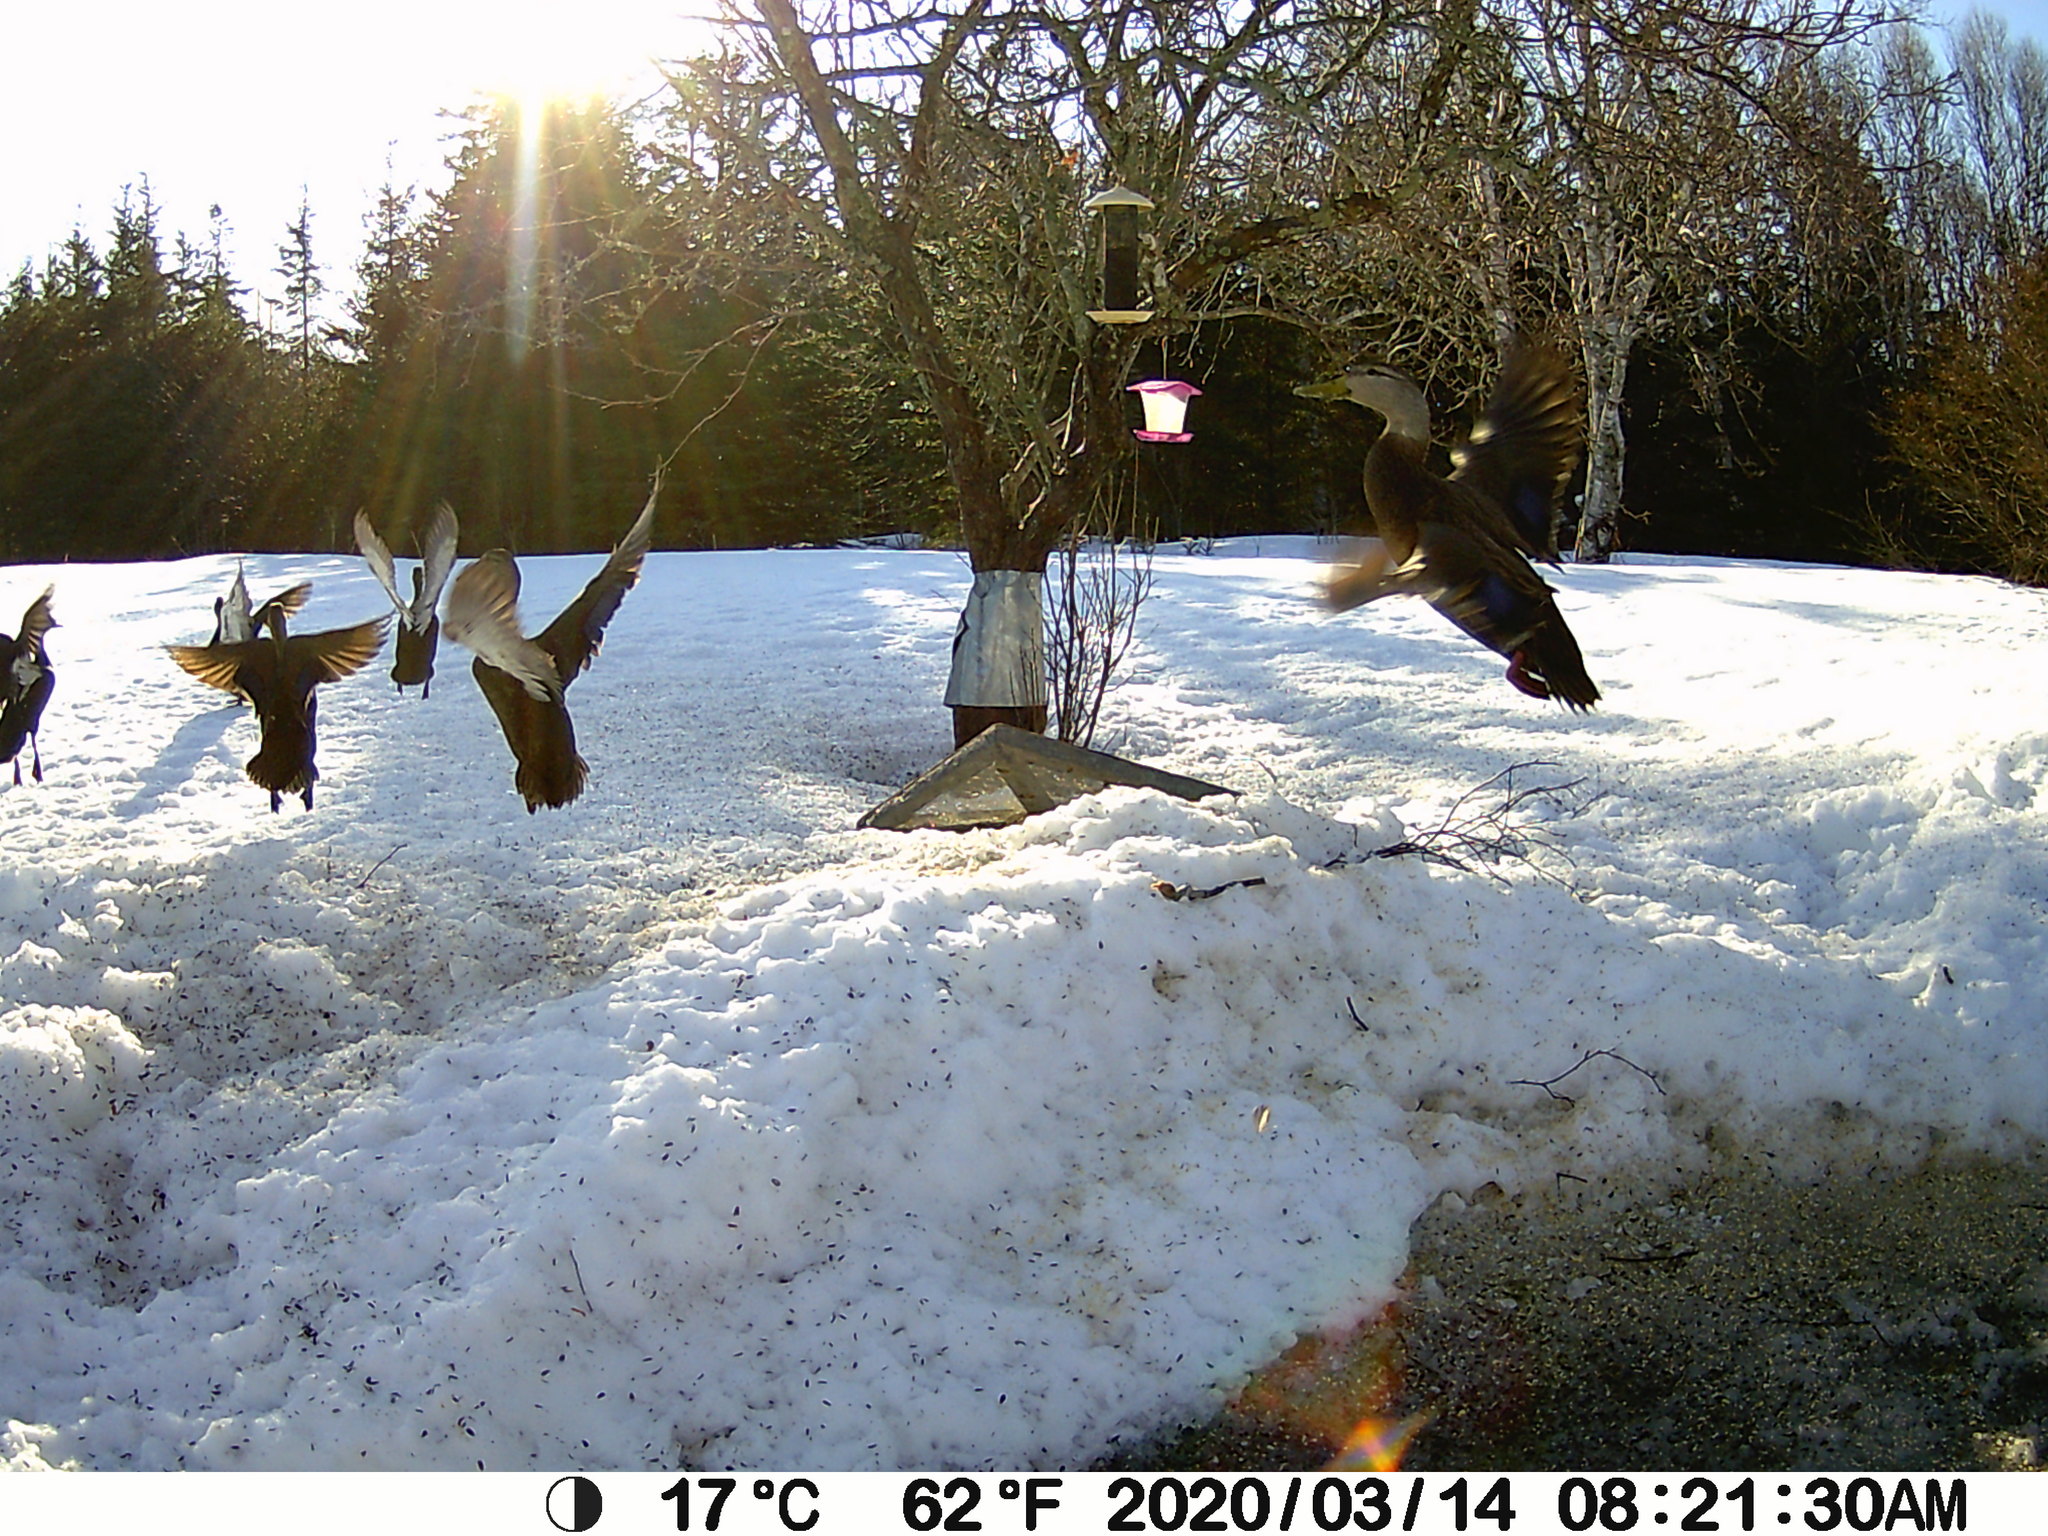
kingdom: Animalia
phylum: Chordata
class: Aves
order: Anseriformes
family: Anatidae
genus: Anas
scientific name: Anas rubripes
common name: American black duck
